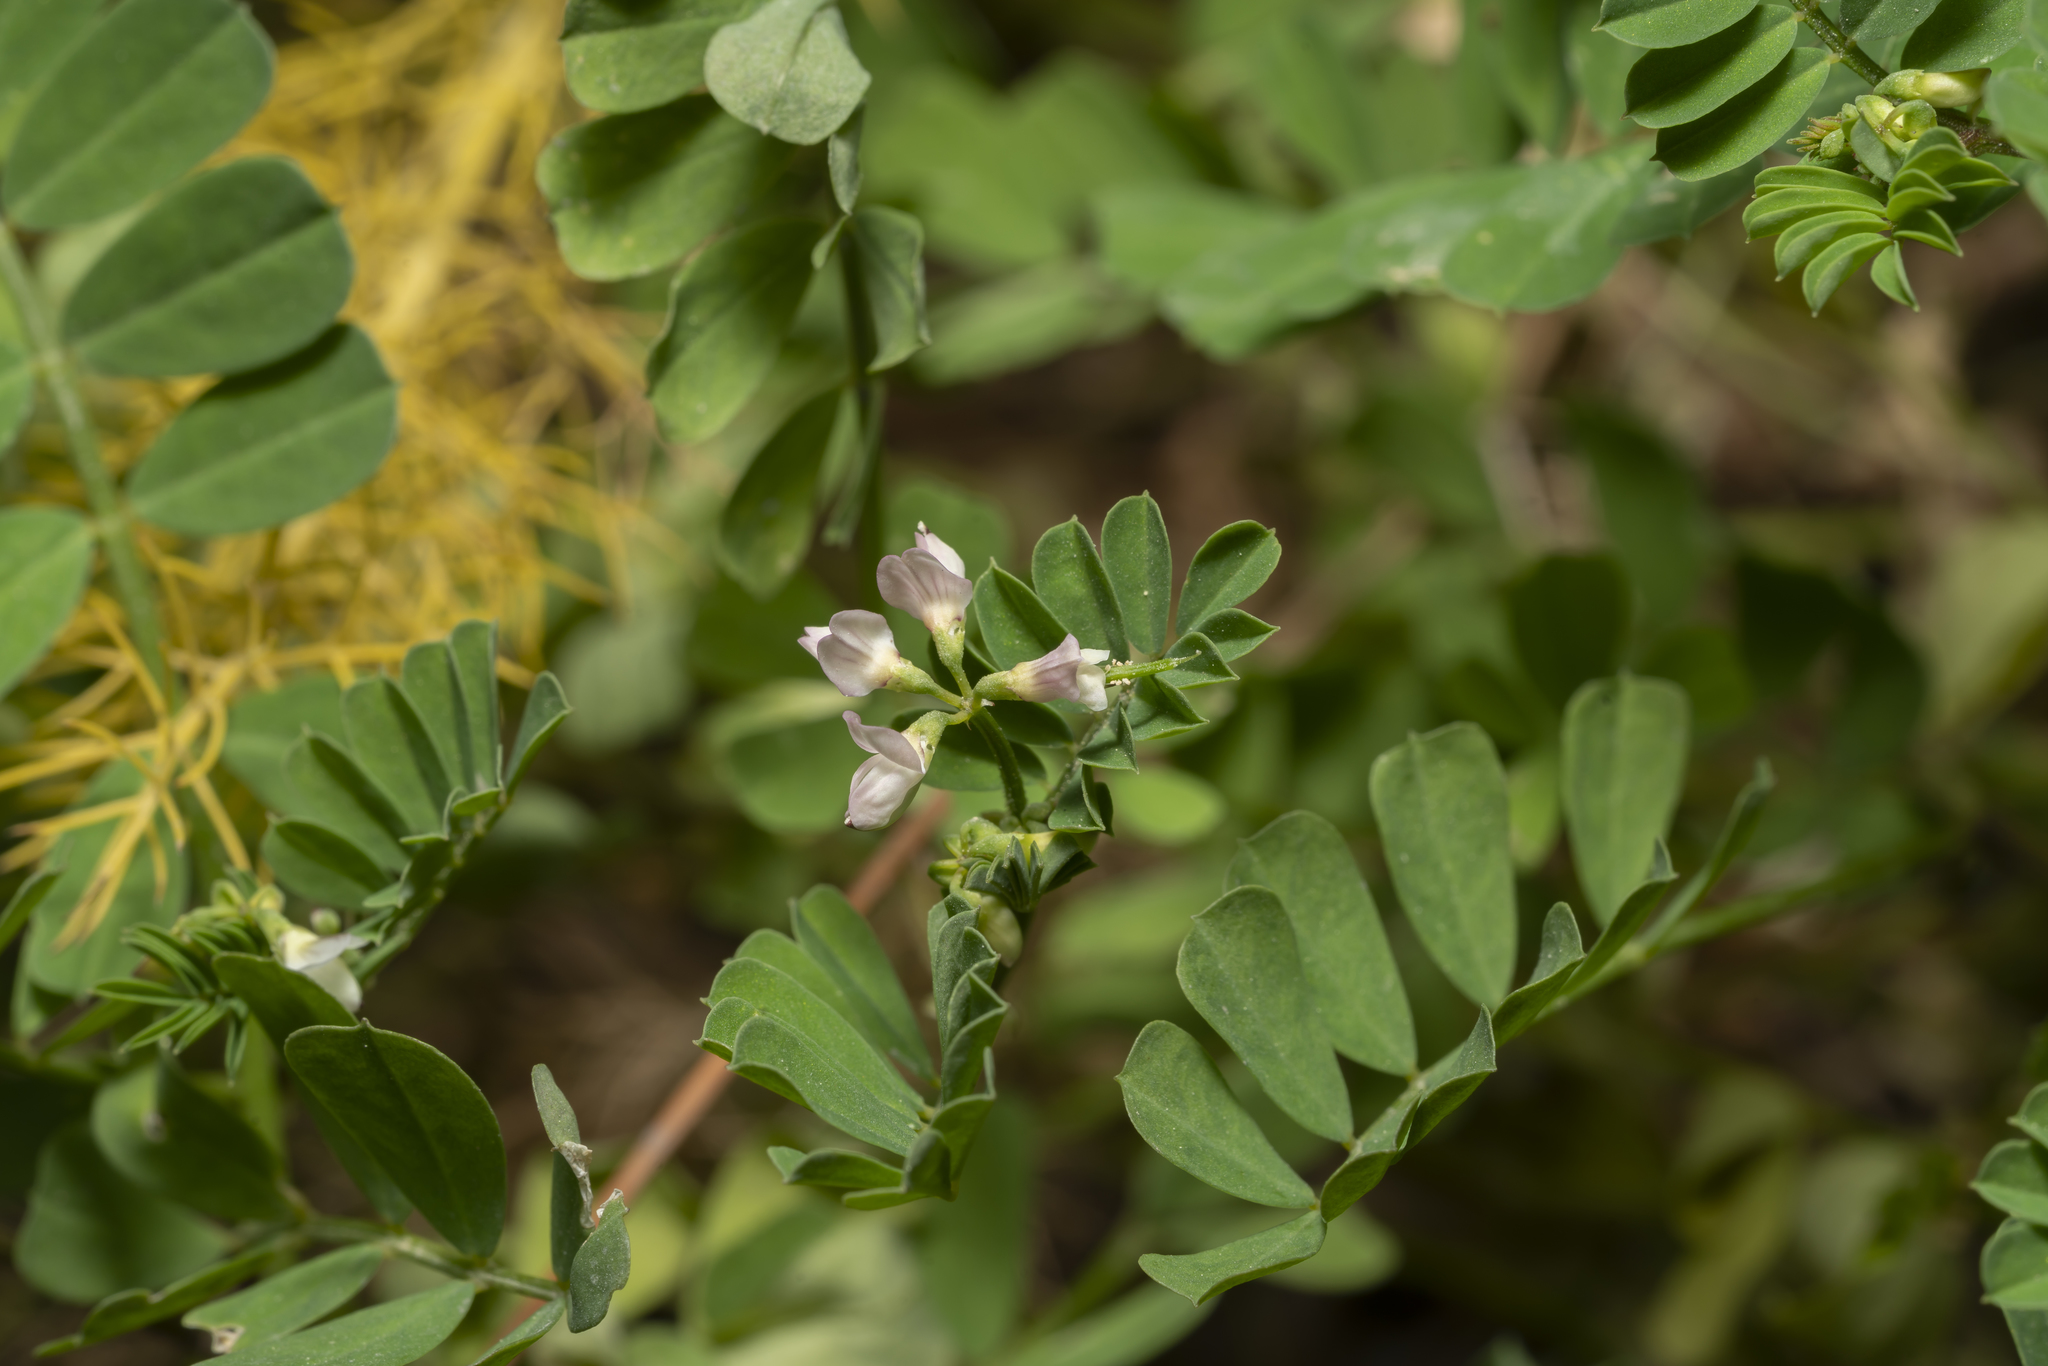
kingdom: Plantae
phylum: Tracheophyta
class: Magnoliopsida
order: Fabales
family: Fabaceae
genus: Coronilla
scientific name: Coronilla cretica
